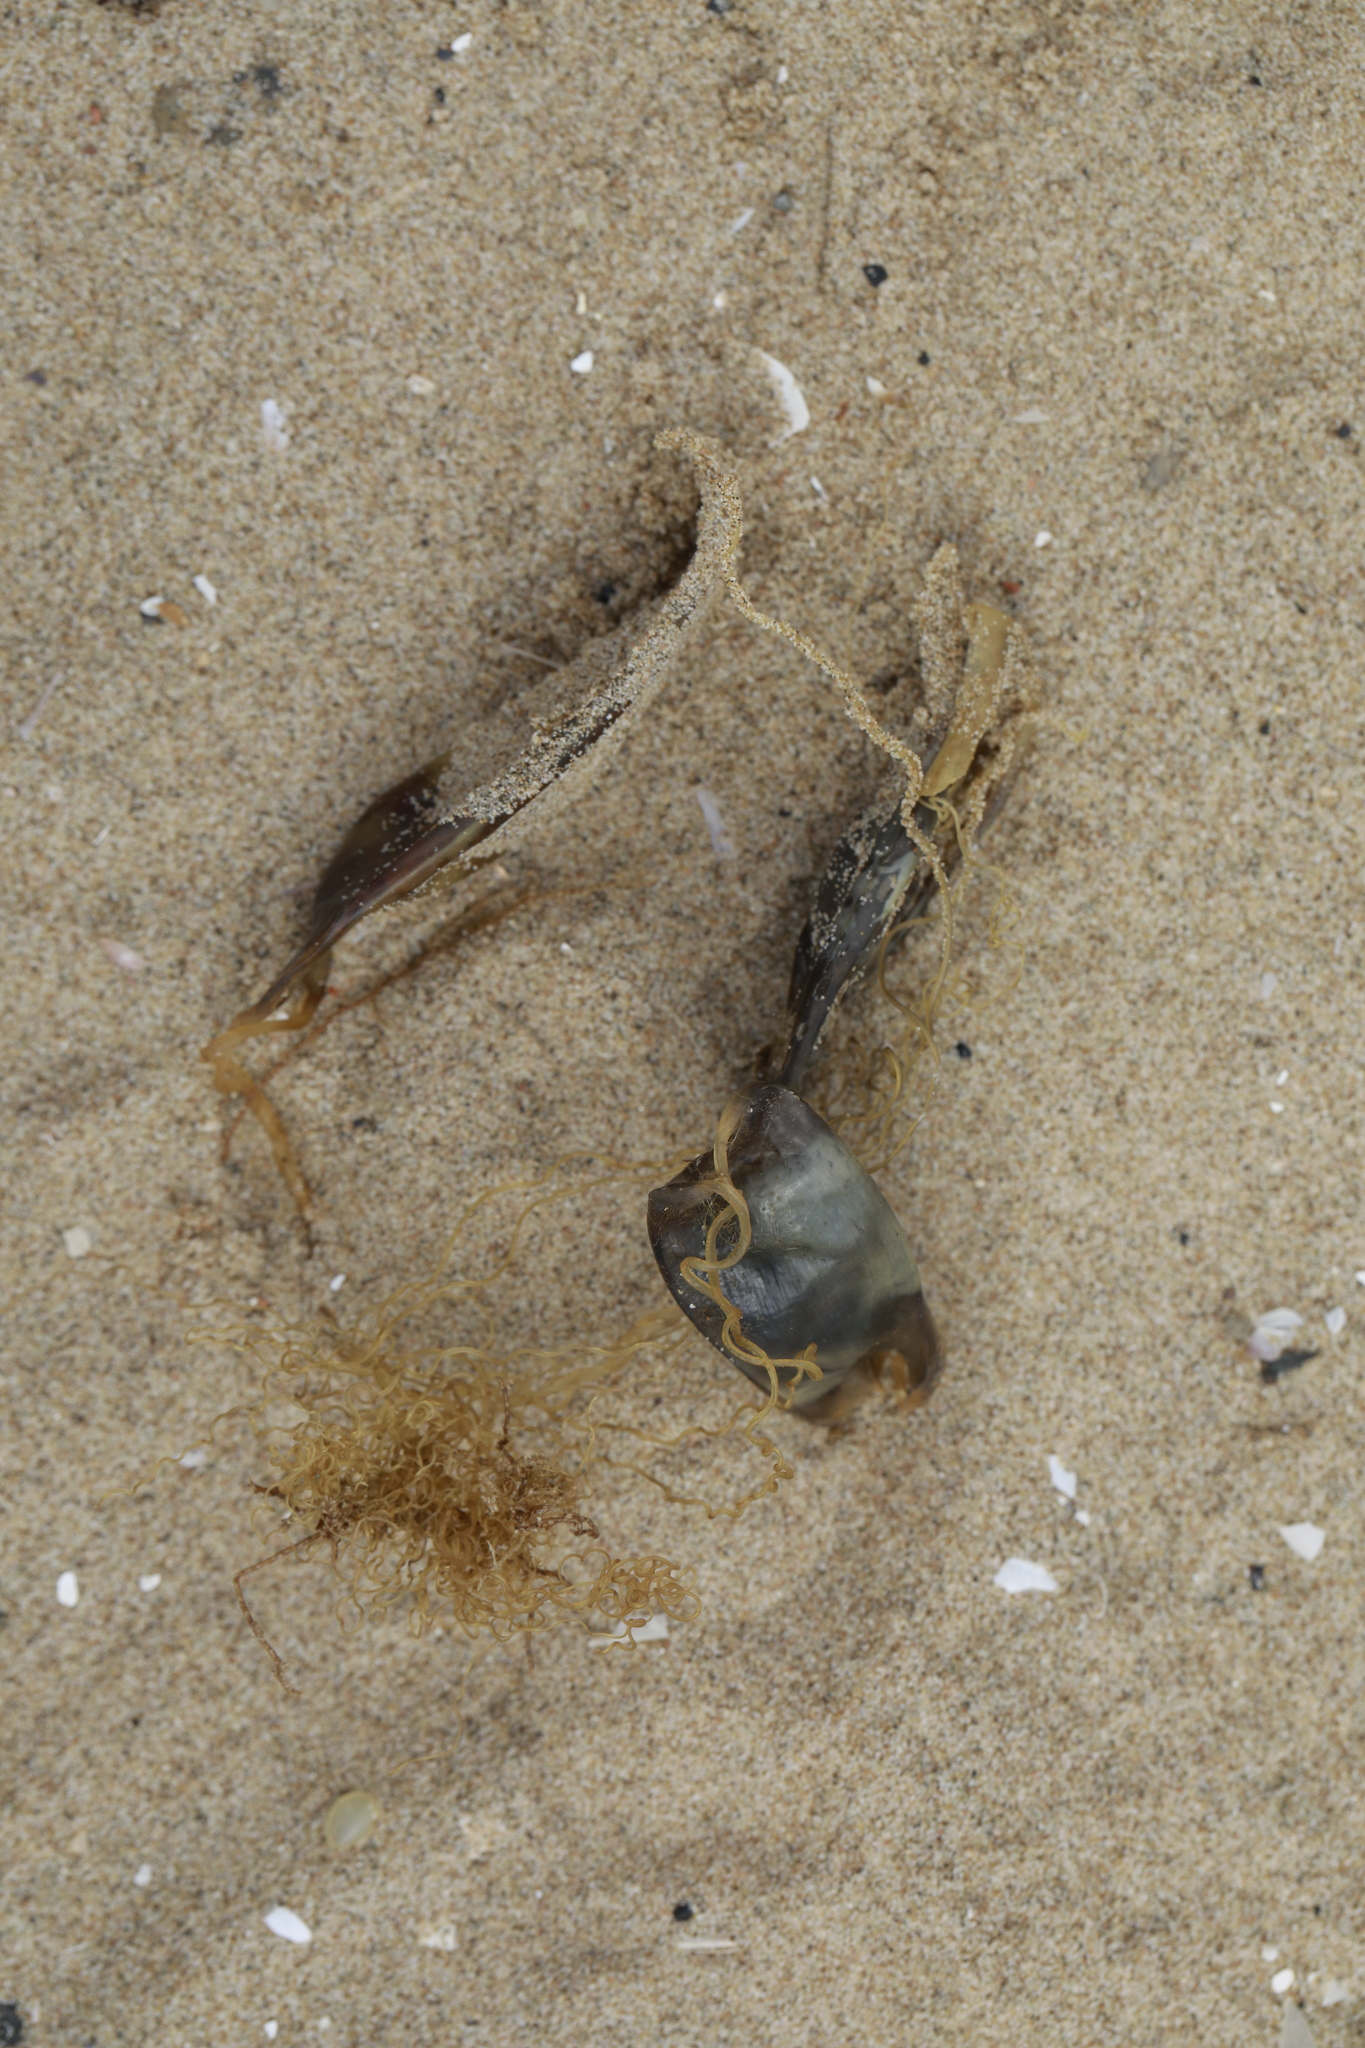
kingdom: Animalia
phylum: Chordata
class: Elasmobranchii
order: Carcharhiniformes
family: Scyliorhinidae
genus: Scyliorhinus
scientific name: Scyliorhinus canicula
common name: Lesser spotted dogfish
